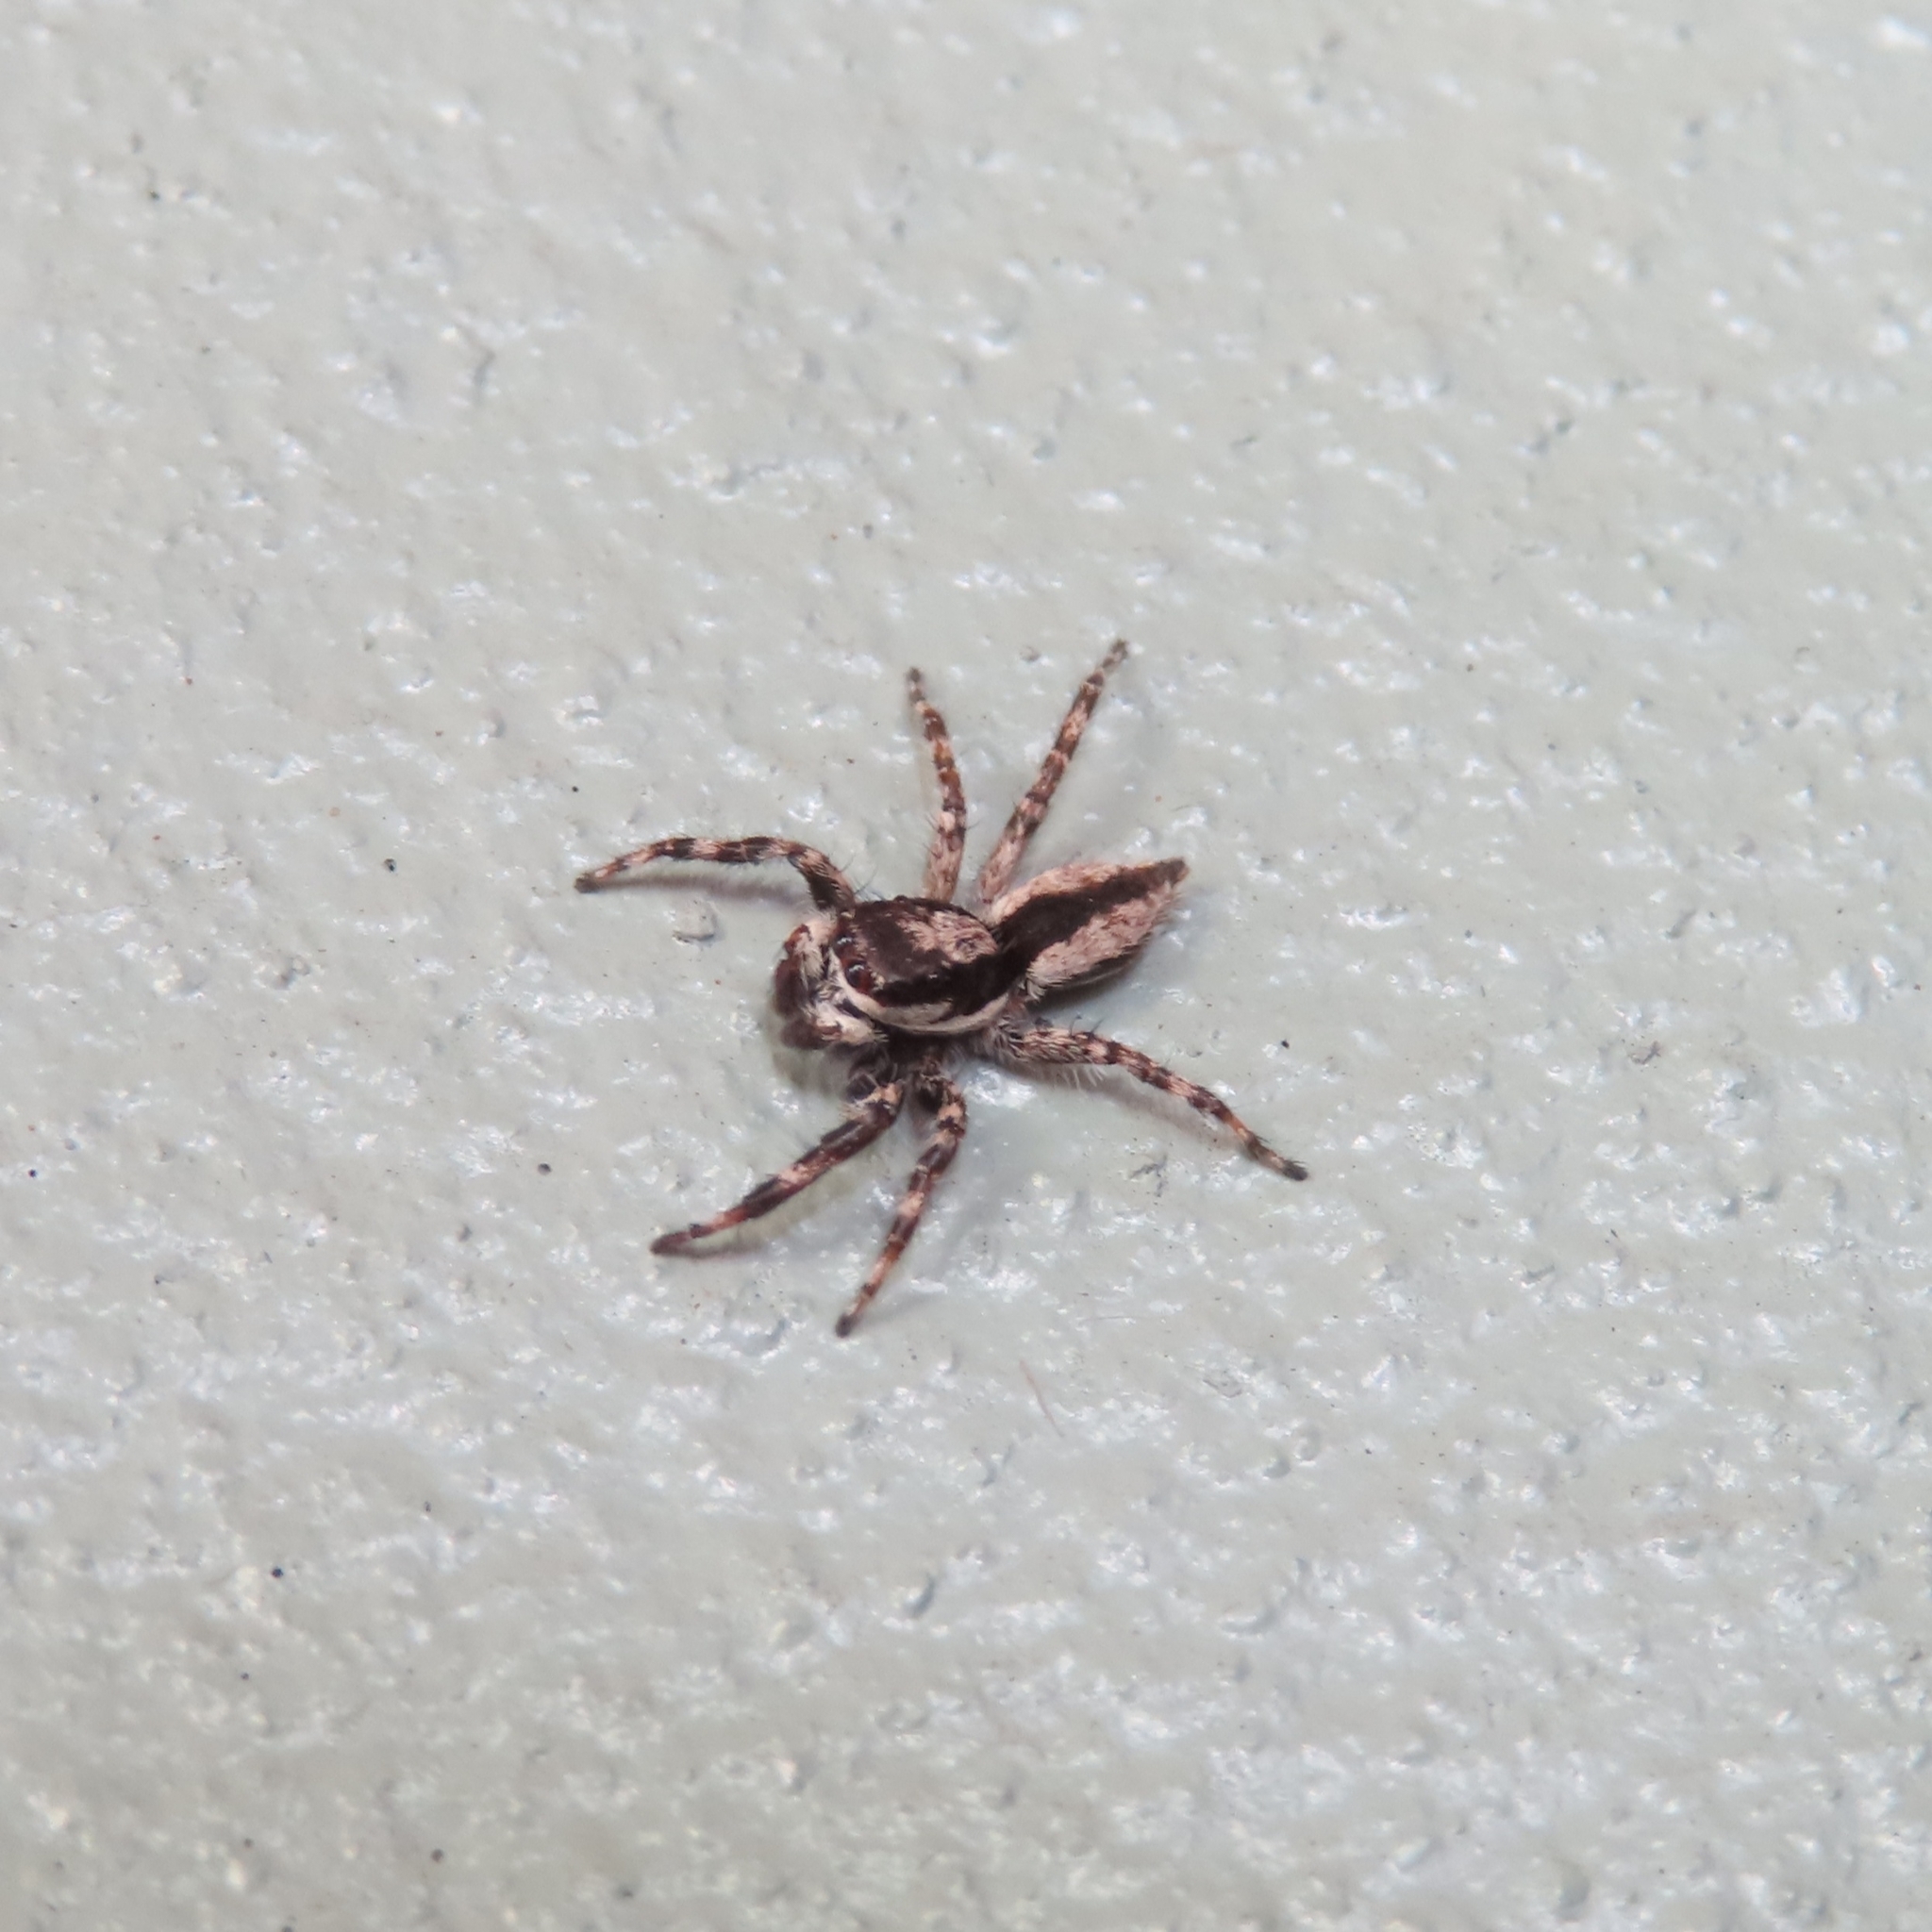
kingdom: Animalia
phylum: Arthropoda
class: Arachnida
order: Araneae
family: Salticidae
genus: Menemerus
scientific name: Menemerus bivittatus
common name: Gray wall jumper
